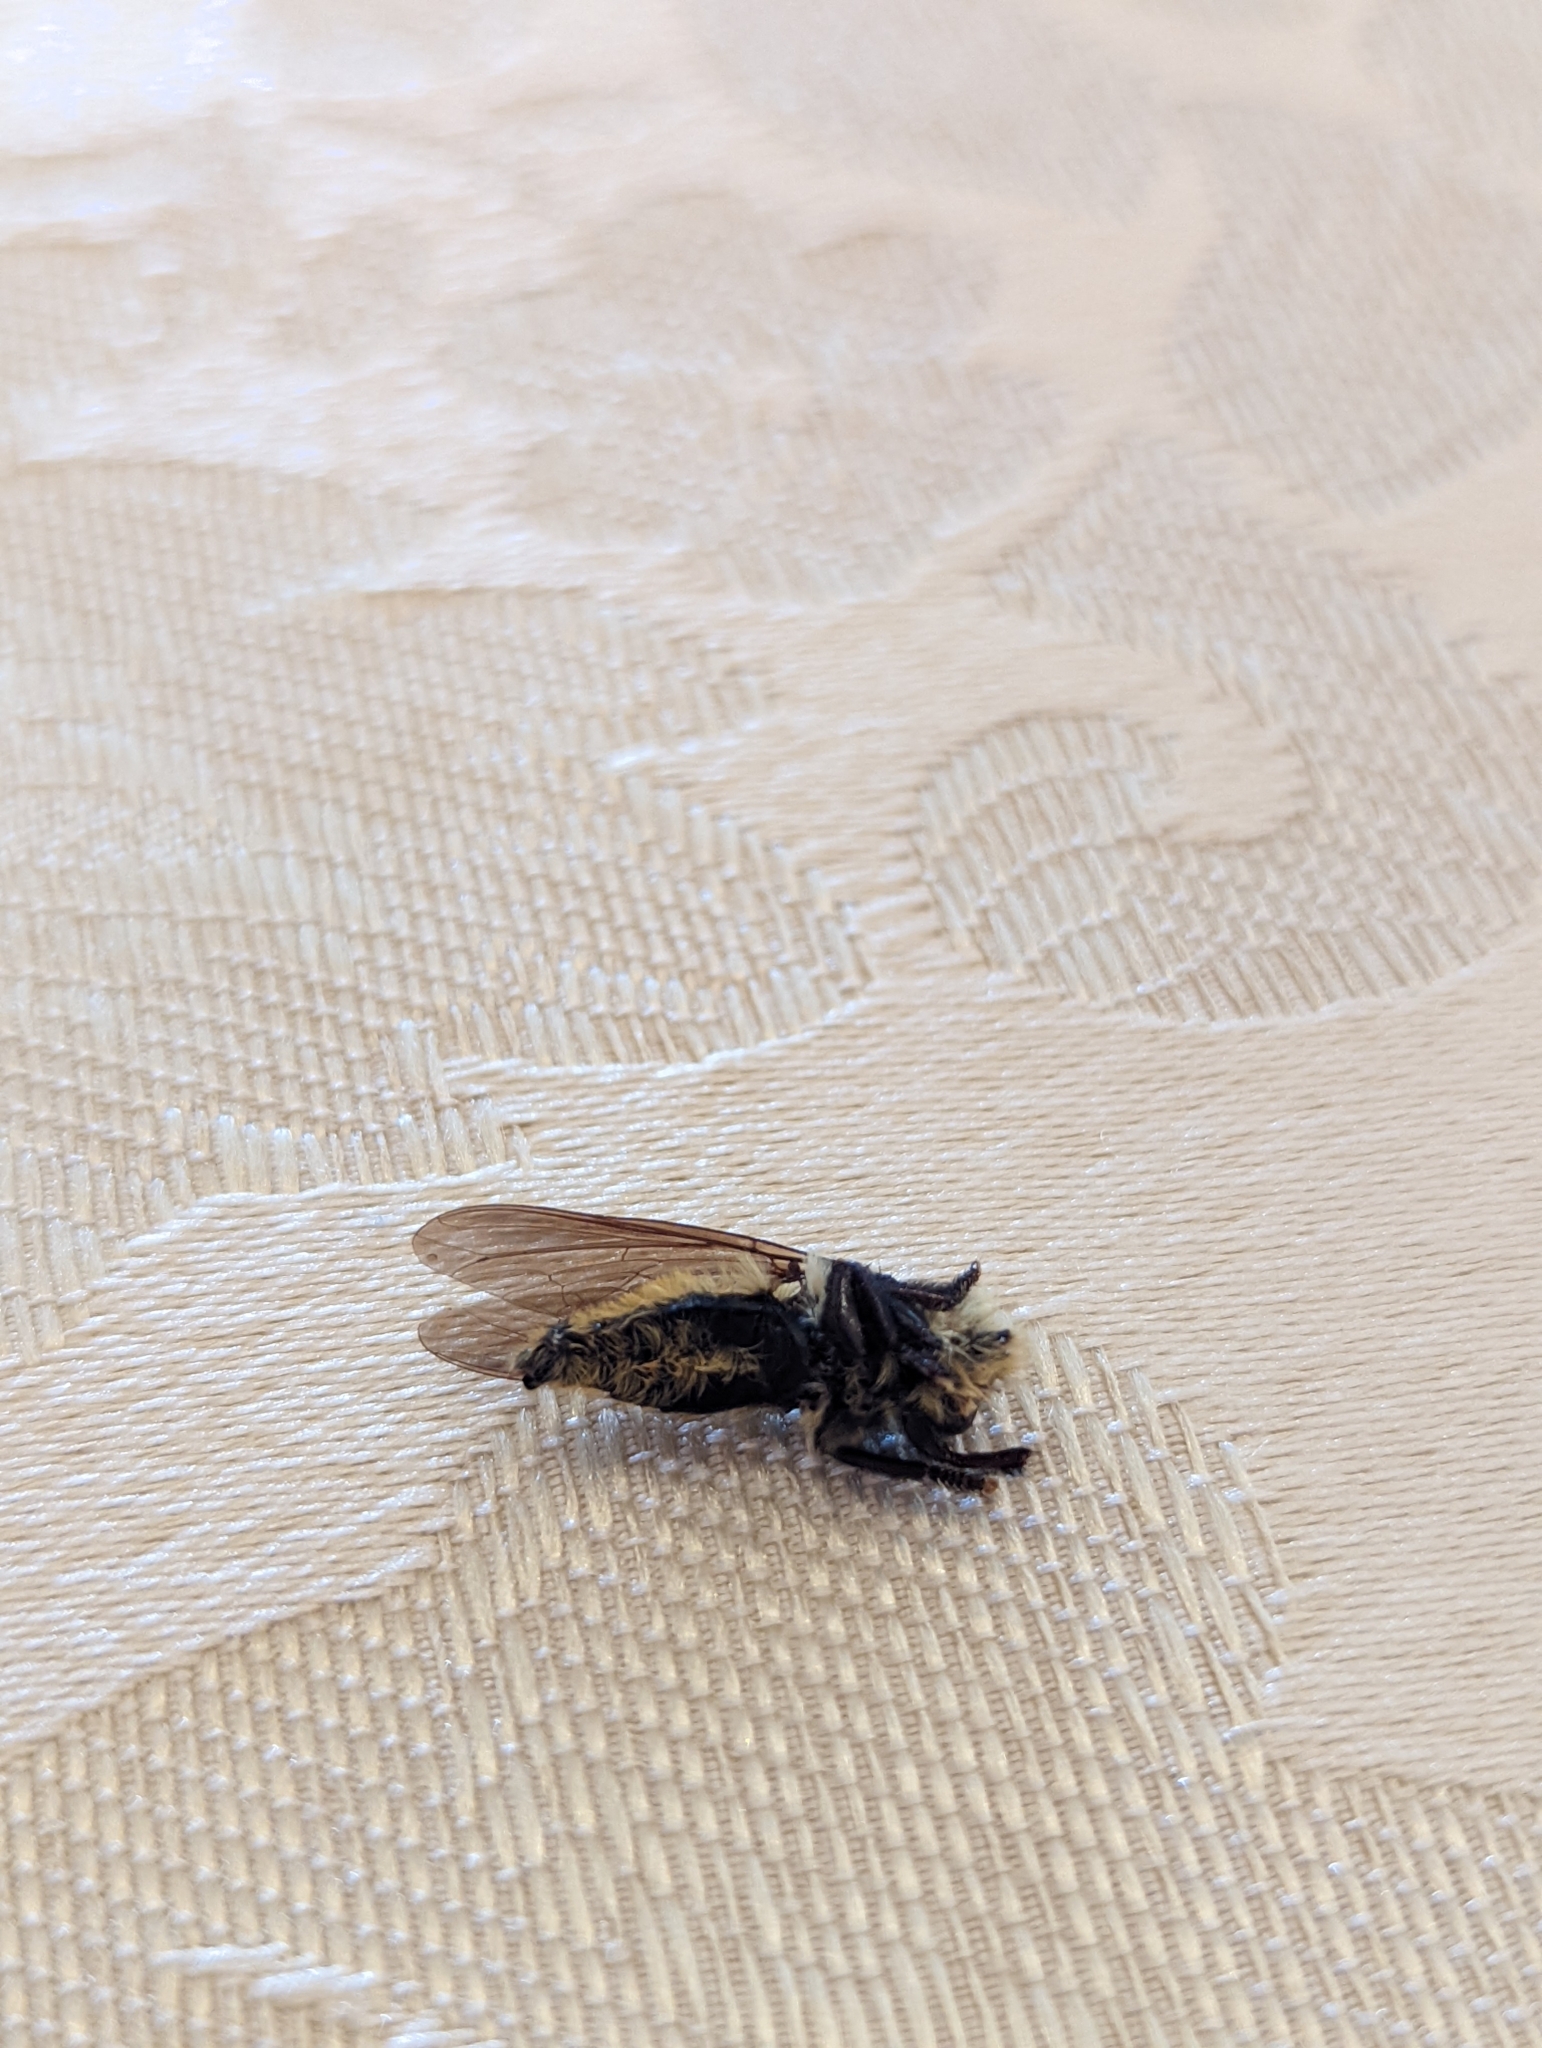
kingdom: Animalia
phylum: Arthropoda
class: Insecta
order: Diptera
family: Asilidae
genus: Mallophora
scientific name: Mallophora fautrix
